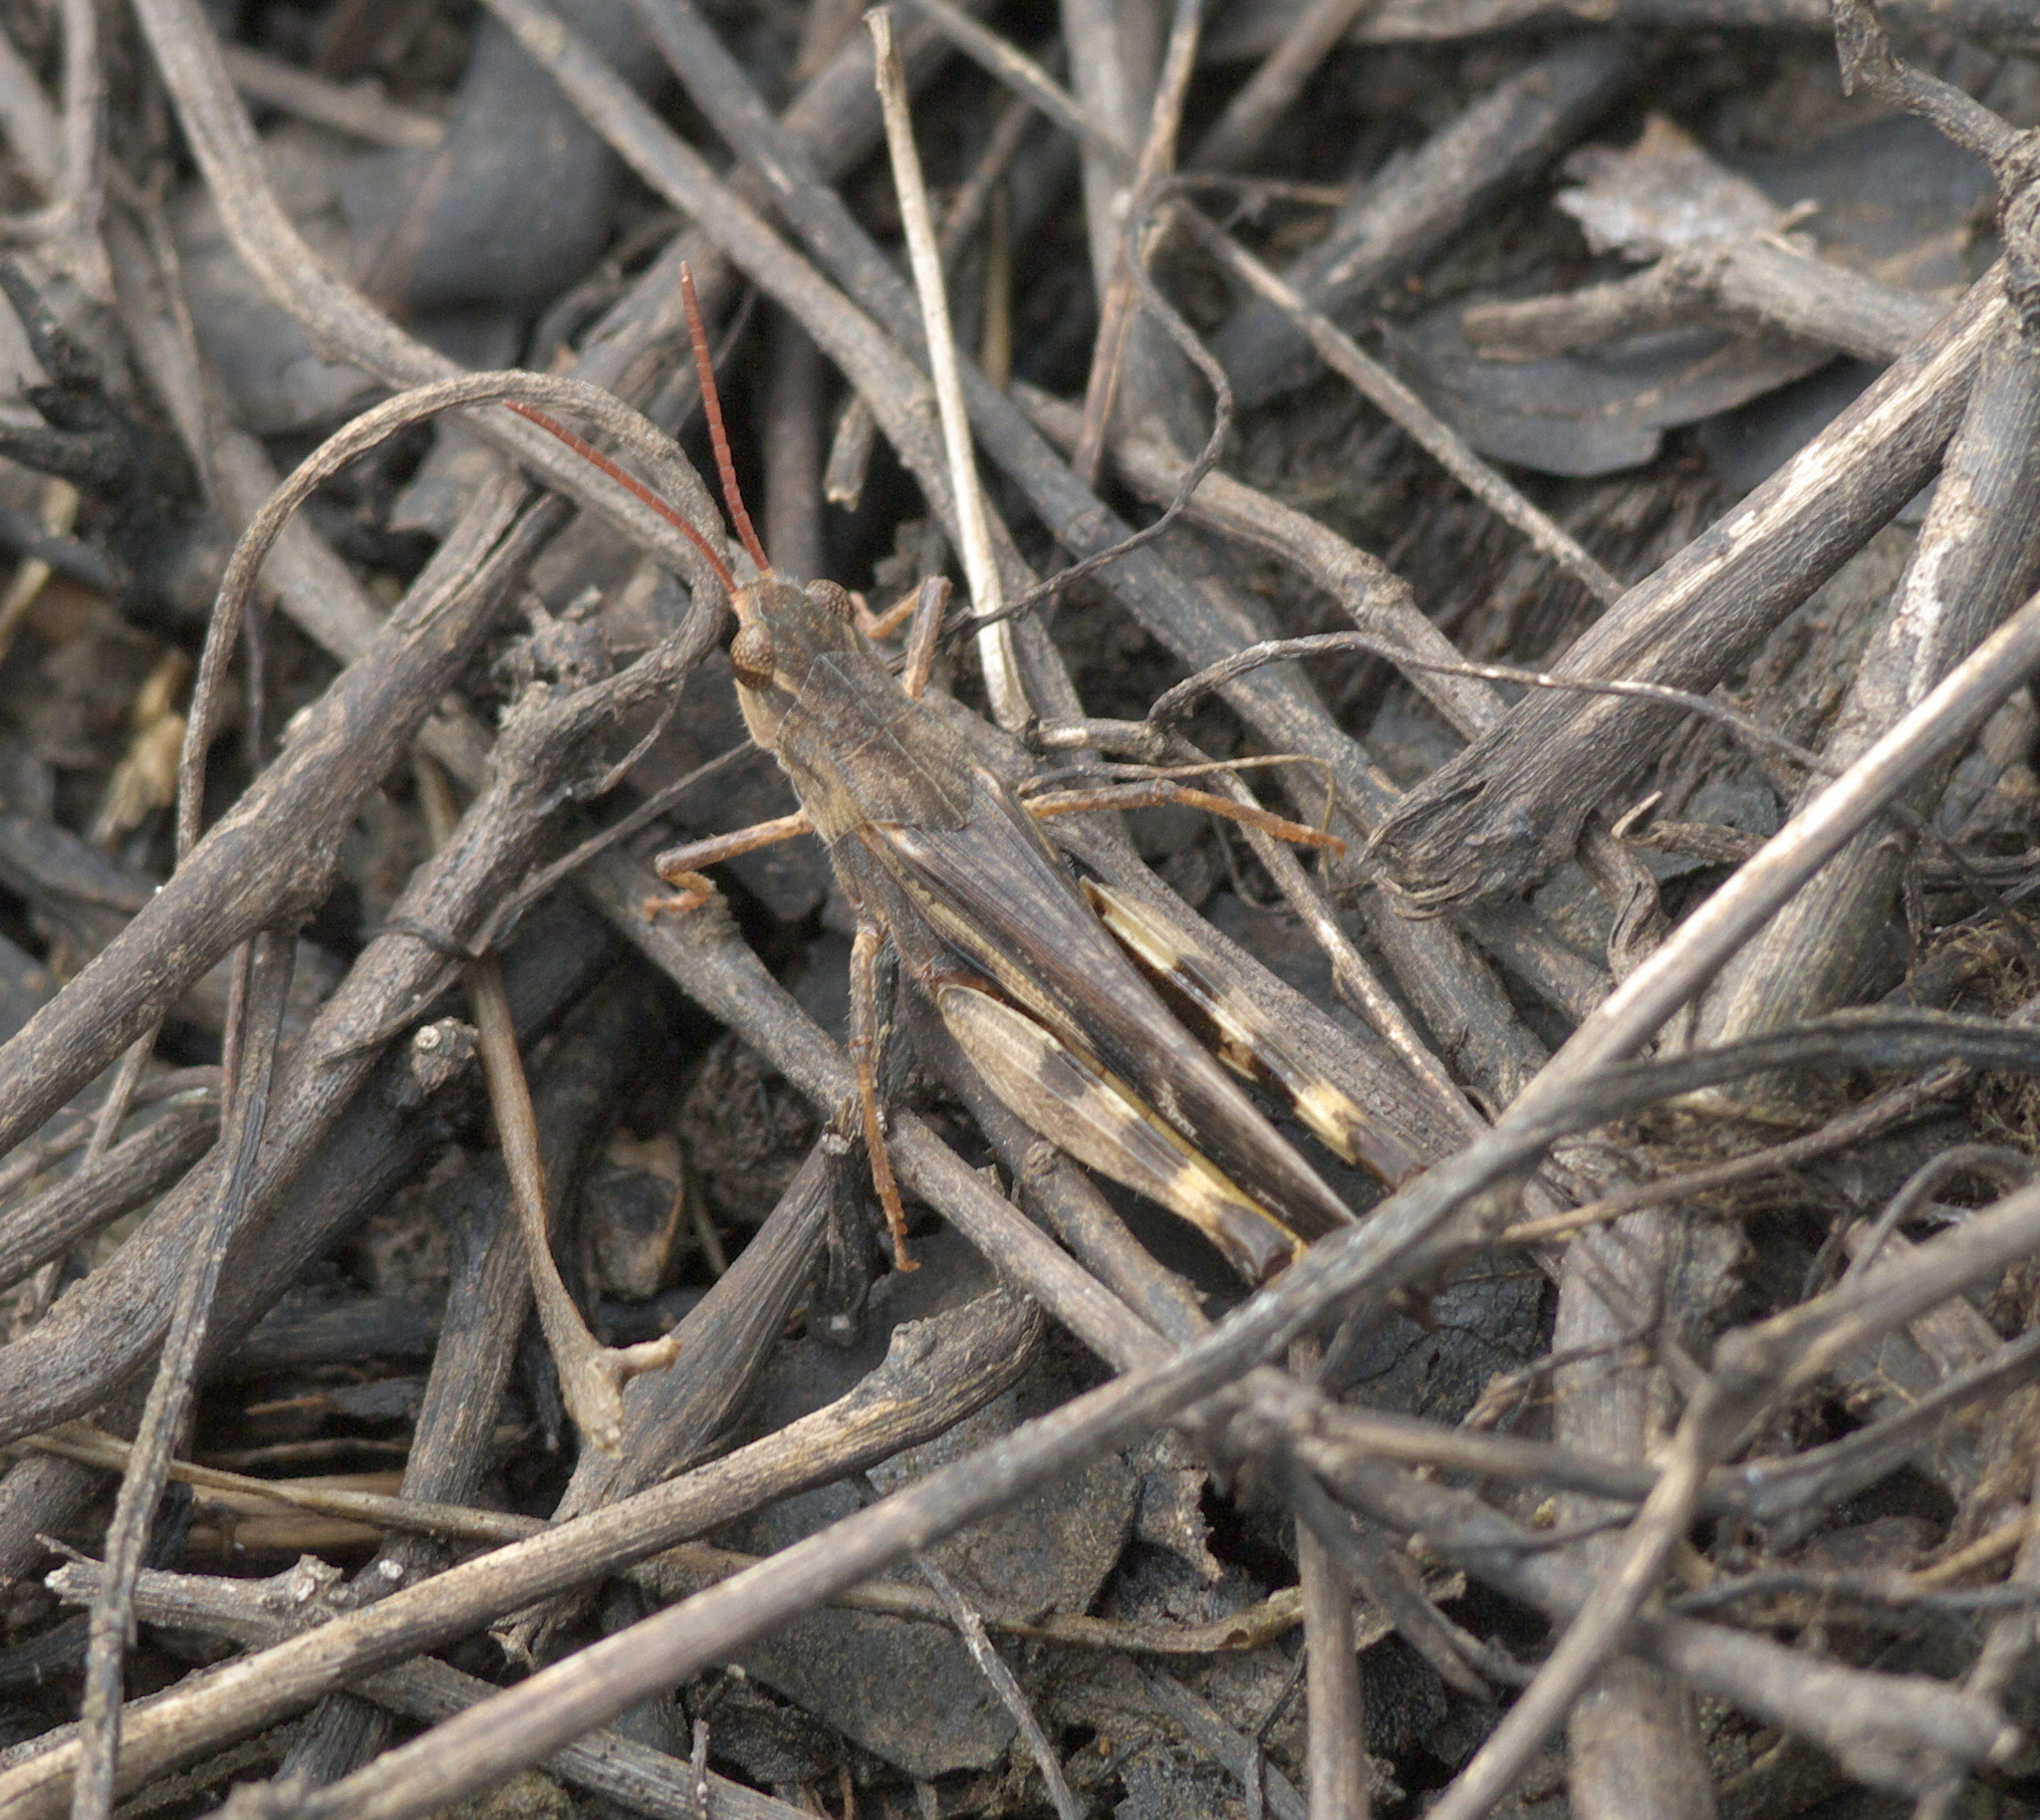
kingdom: Animalia
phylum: Arthropoda
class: Insecta
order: Orthoptera
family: Acrididae
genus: Chortophaga
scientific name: Chortophaga viridifasciata
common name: Green-striped grasshopper
